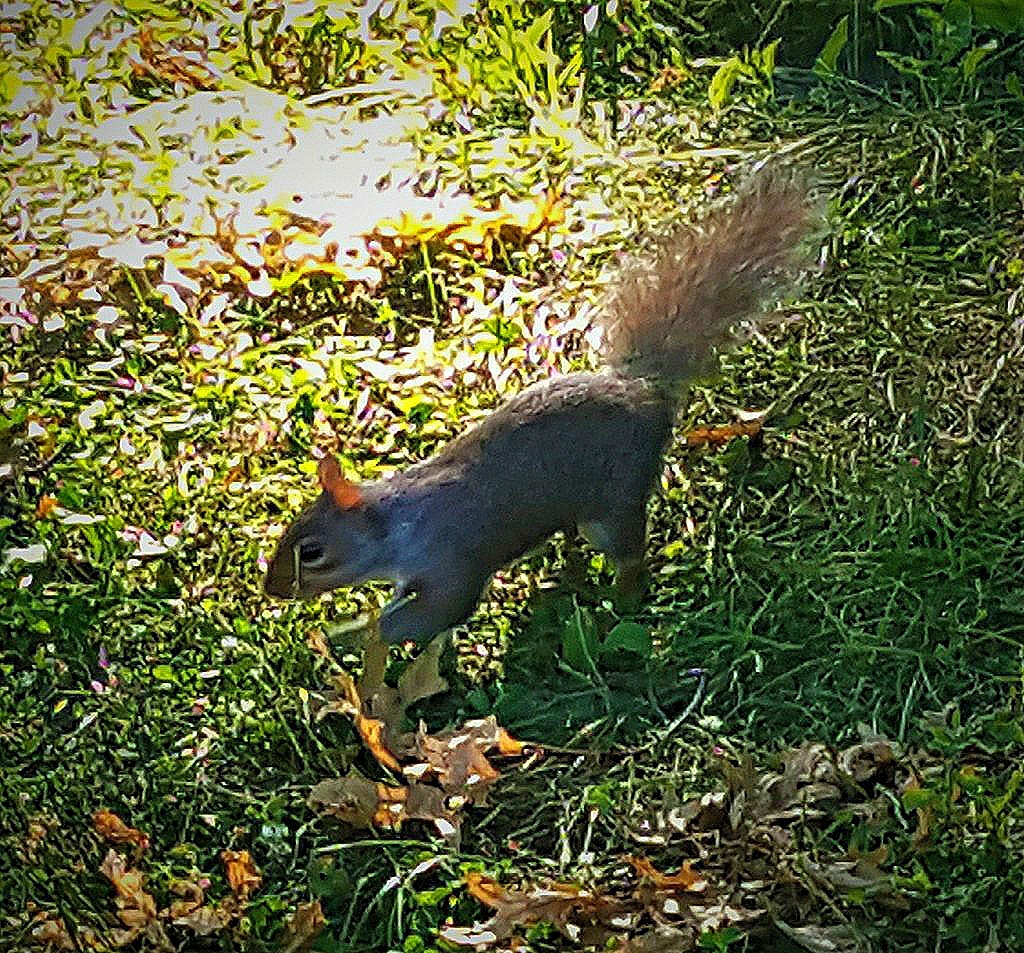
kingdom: Animalia
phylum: Chordata
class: Mammalia
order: Rodentia
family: Sciuridae
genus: Sciurus
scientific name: Sciurus carolinensis
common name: Eastern gray squirrel
